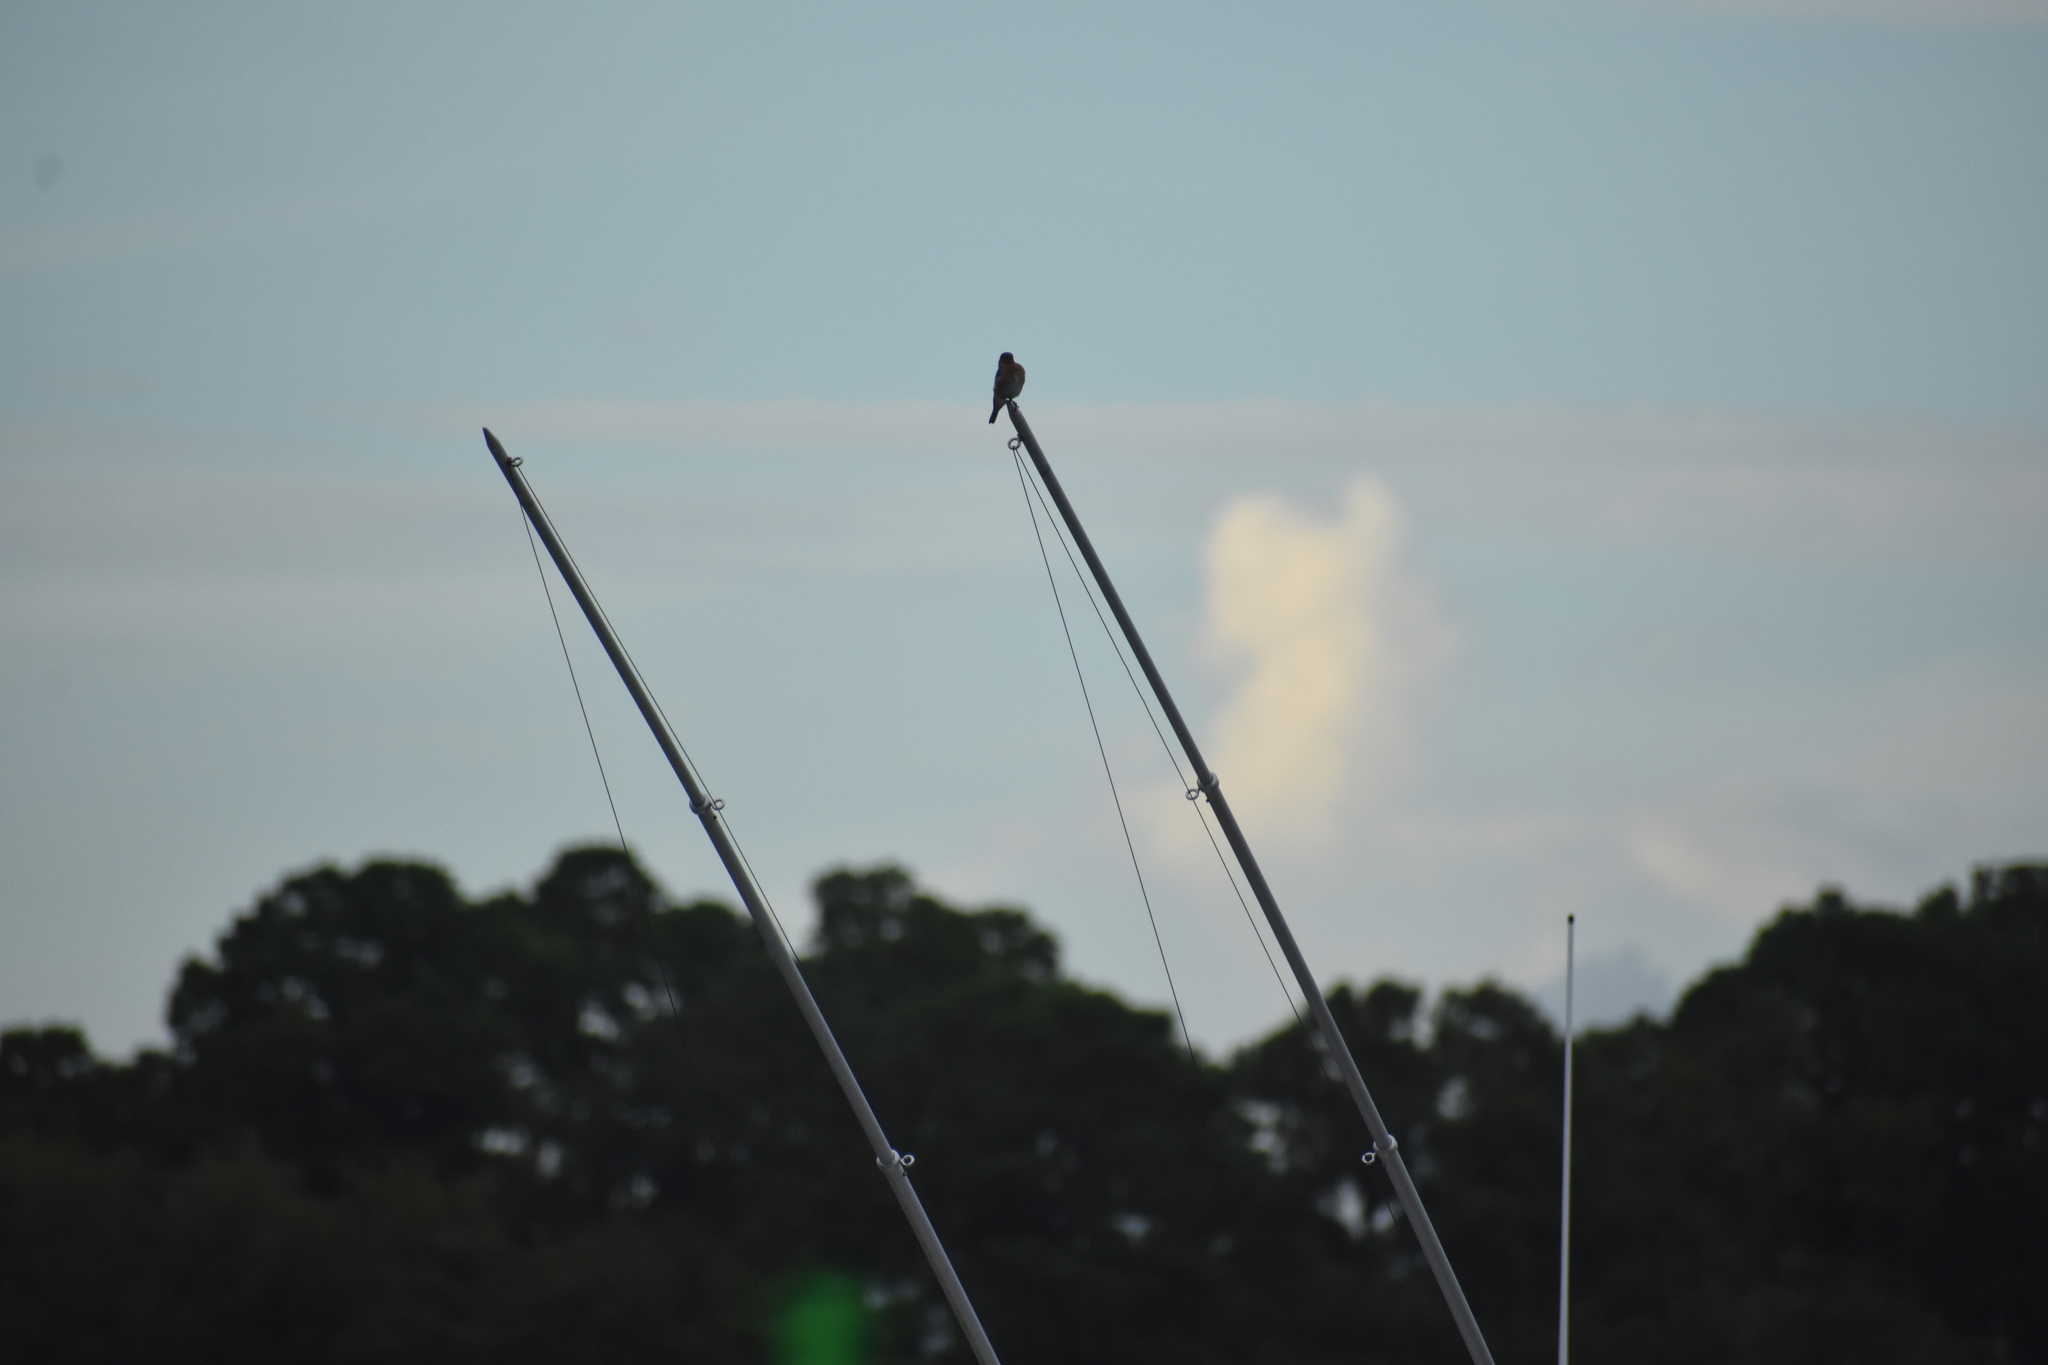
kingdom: Animalia
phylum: Chordata
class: Aves
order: Passeriformes
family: Turdidae
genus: Sialia
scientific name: Sialia sialis
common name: Eastern bluebird
